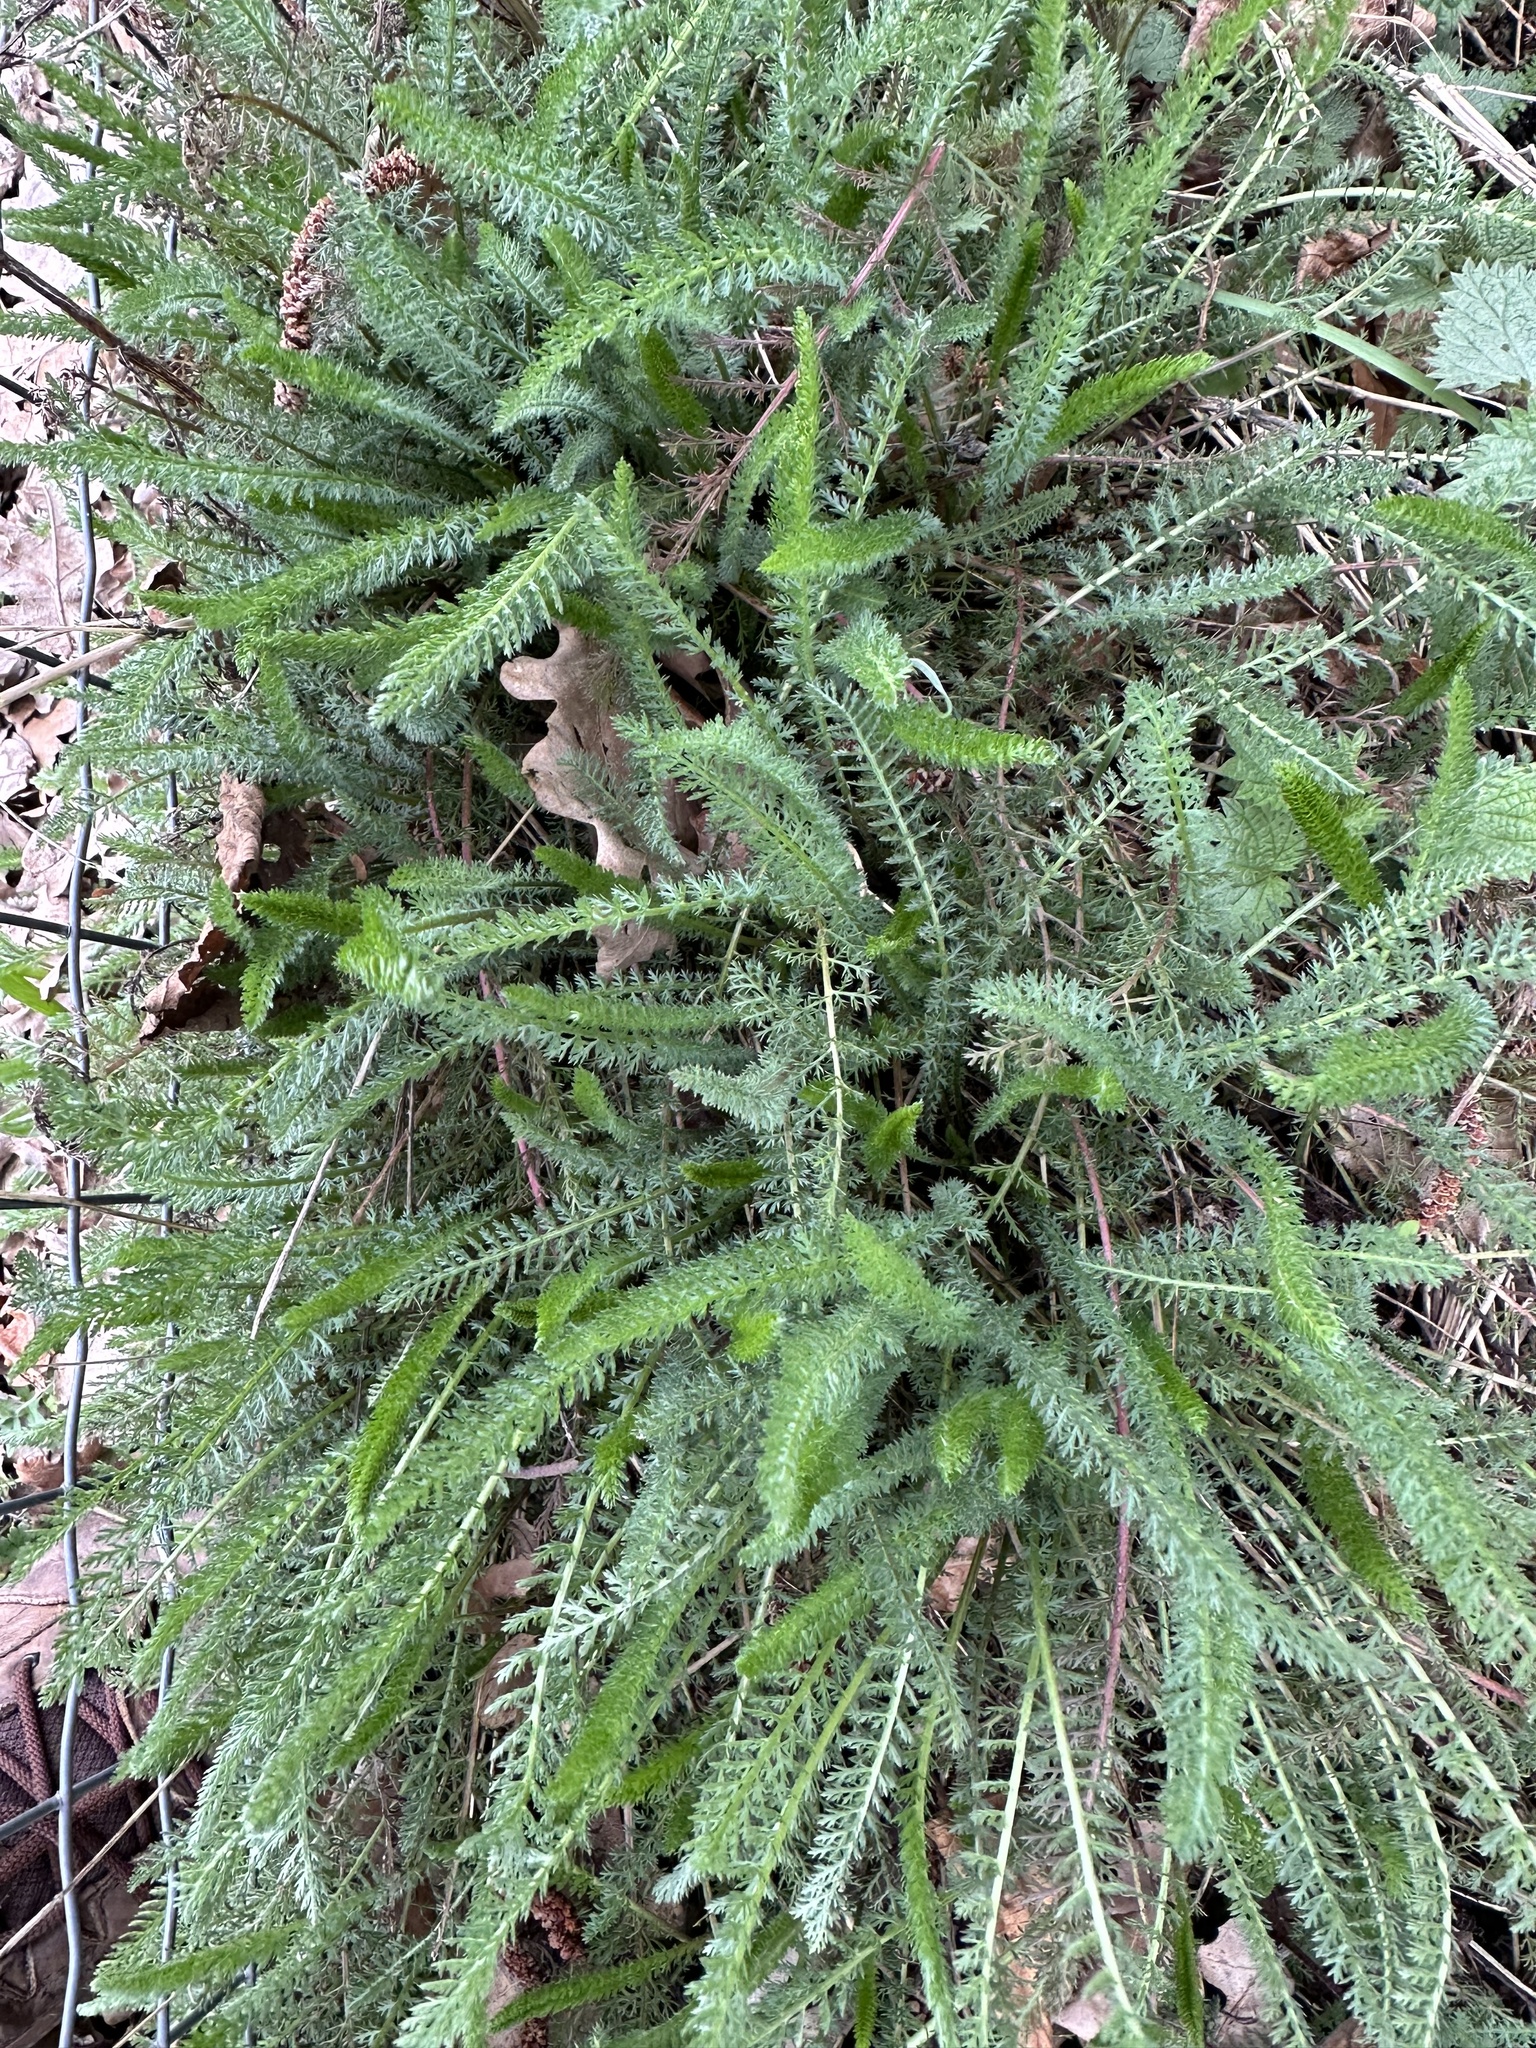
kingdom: Plantae
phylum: Tracheophyta
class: Magnoliopsida
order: Asterales
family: Asteraceae
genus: Achillea
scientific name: Achillea millefolium
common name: Yarrow
